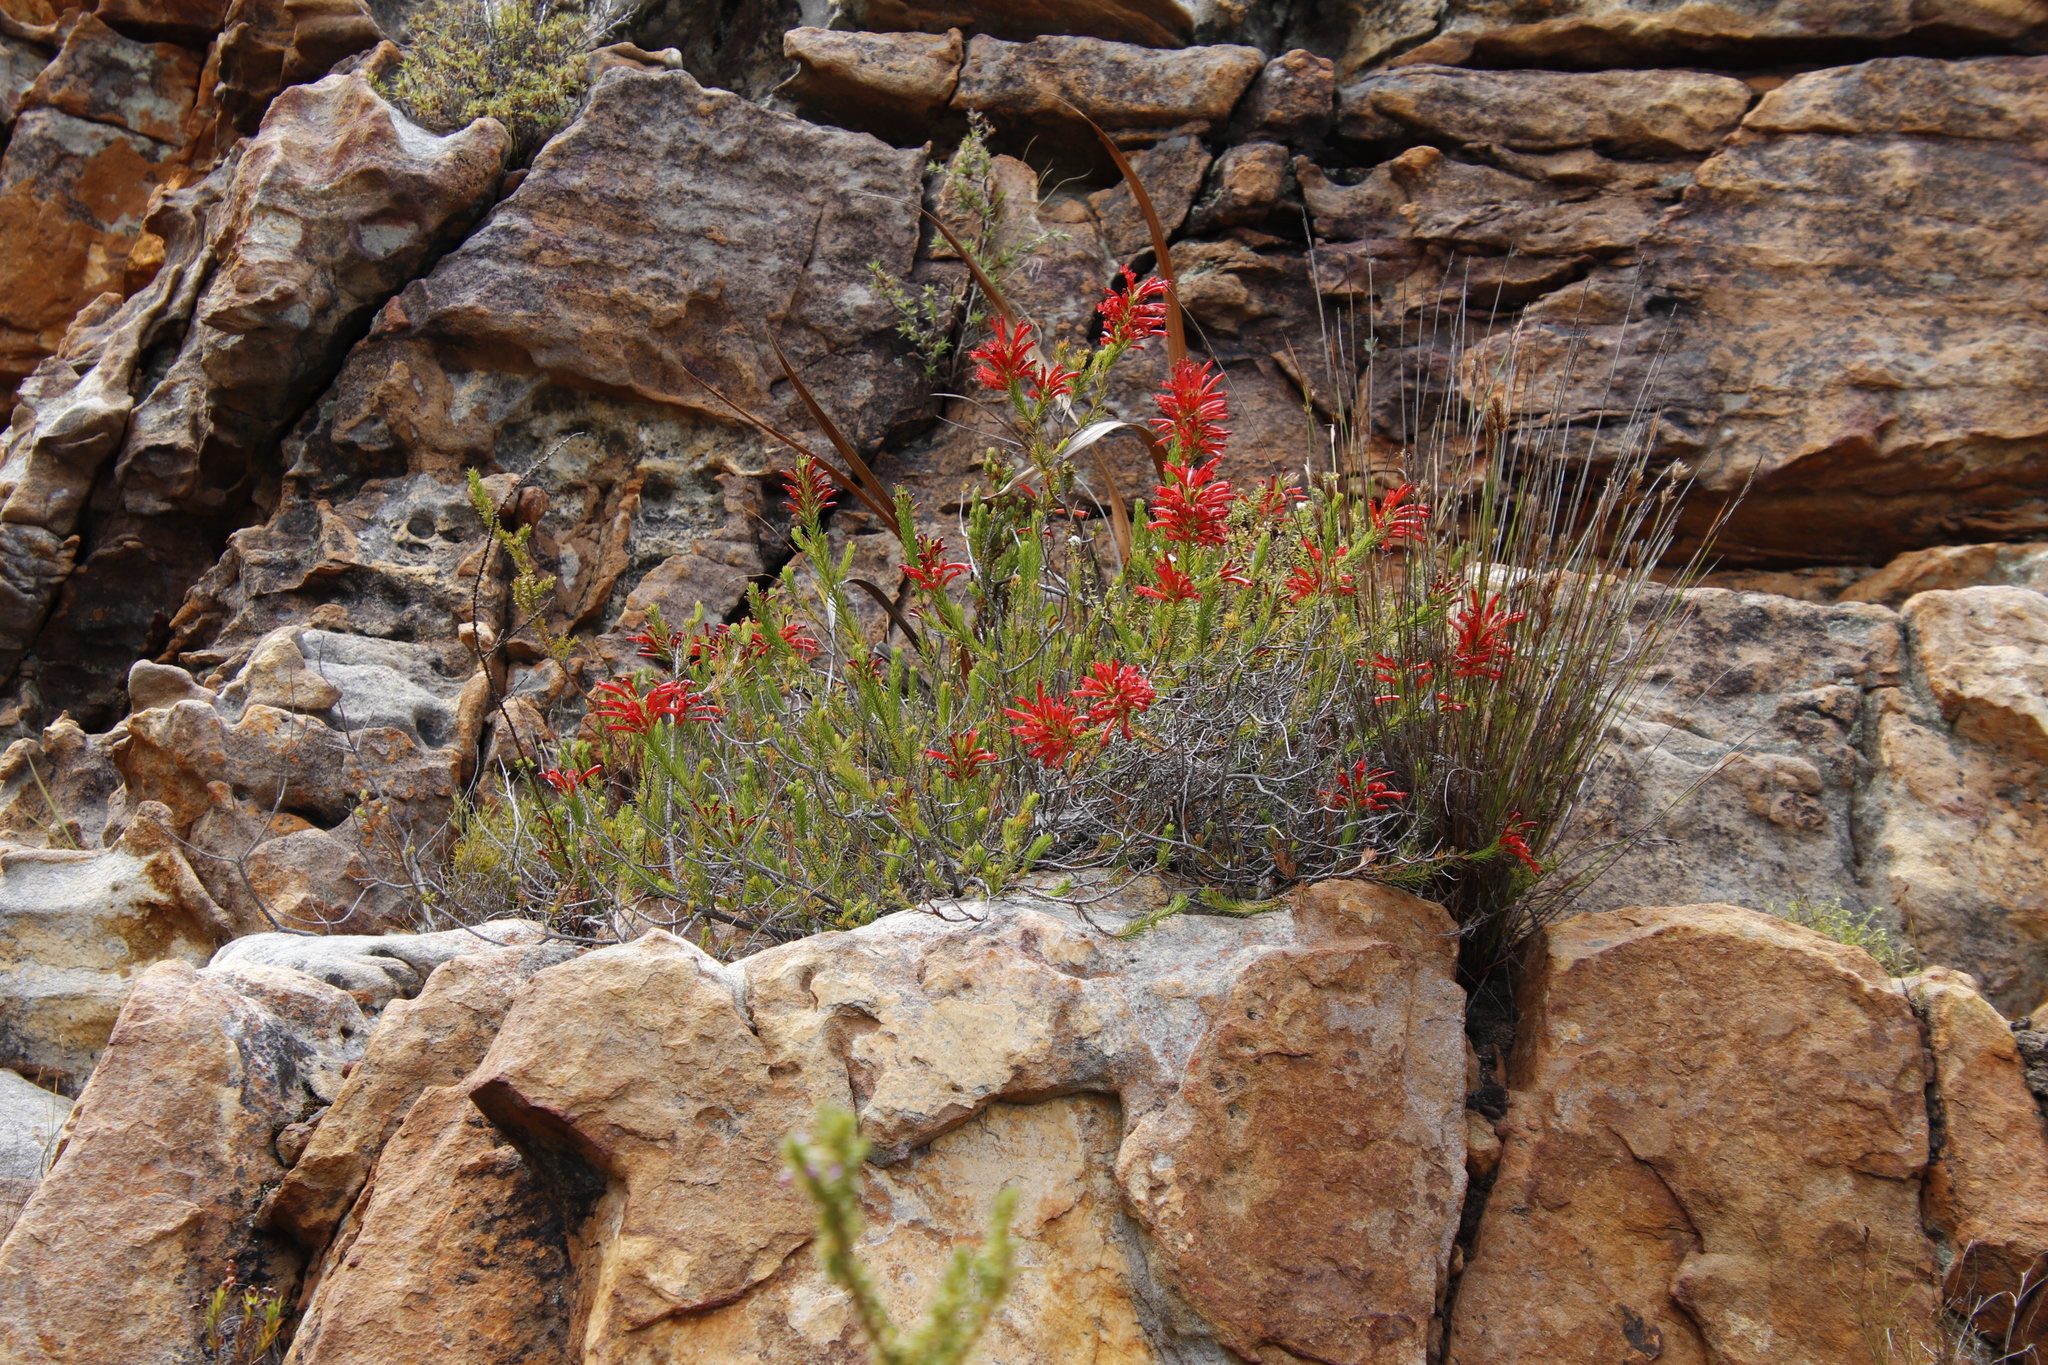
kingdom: Plantae
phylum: Tracheophyta
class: Magnoliopsida
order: Ericales
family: Ericaceae
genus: Erica
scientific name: Erica nevillei
